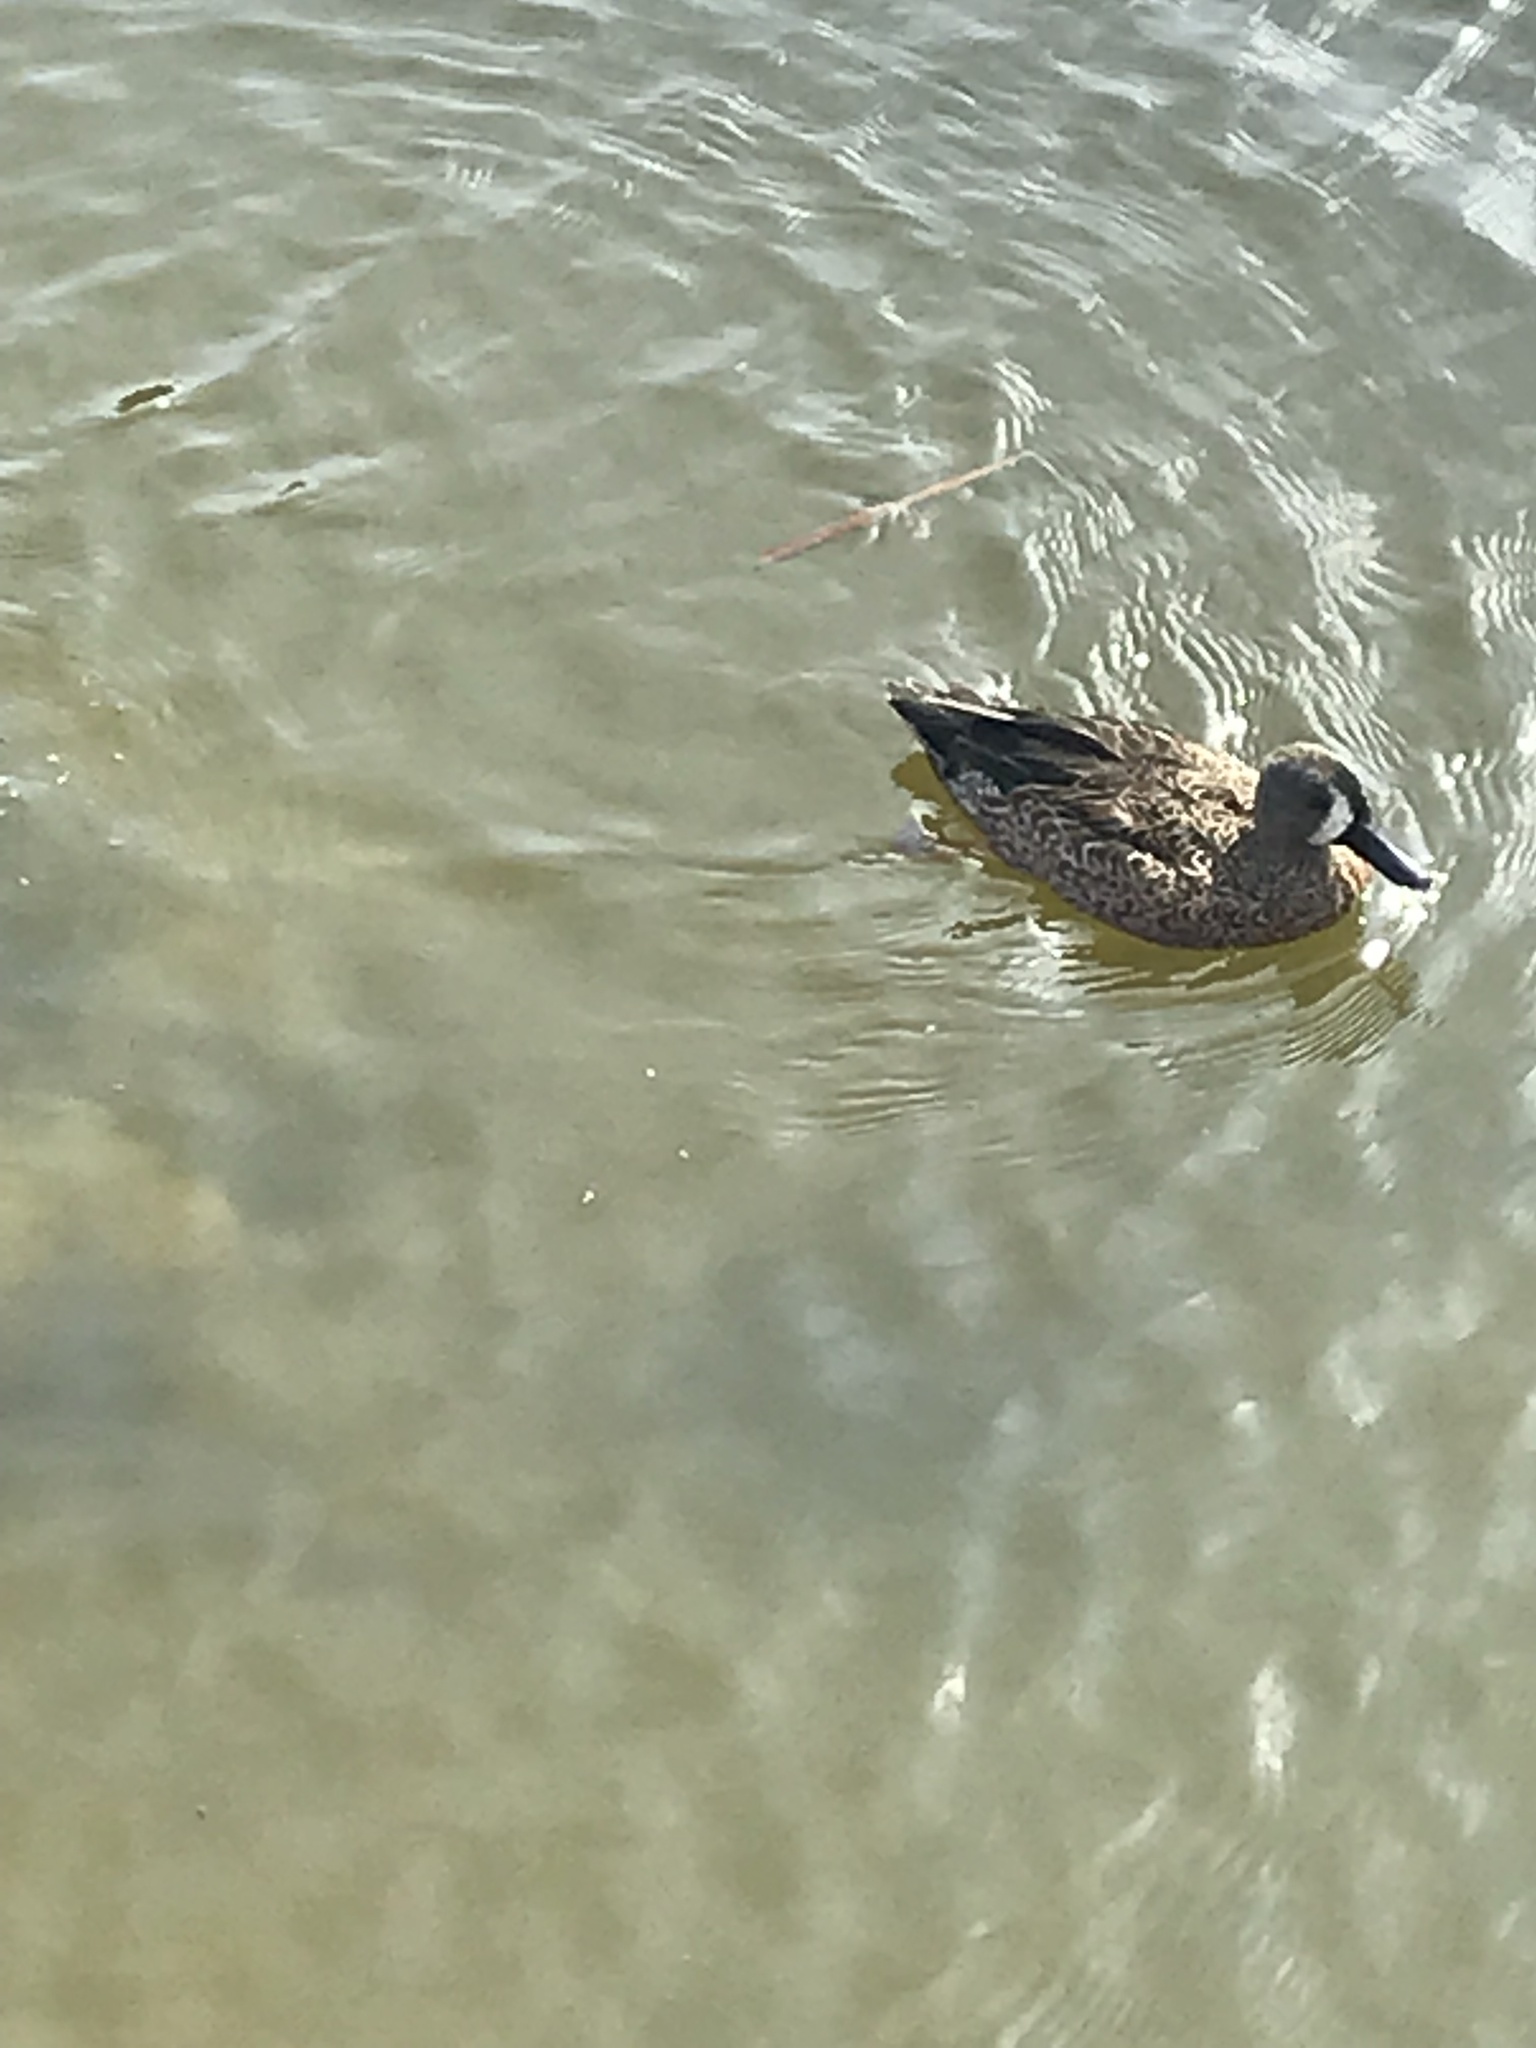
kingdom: Animalia
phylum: Chordata
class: Aves
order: Anseriformes
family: Anatidae
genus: Spatula
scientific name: Spatula discors
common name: Blue-winged teal
